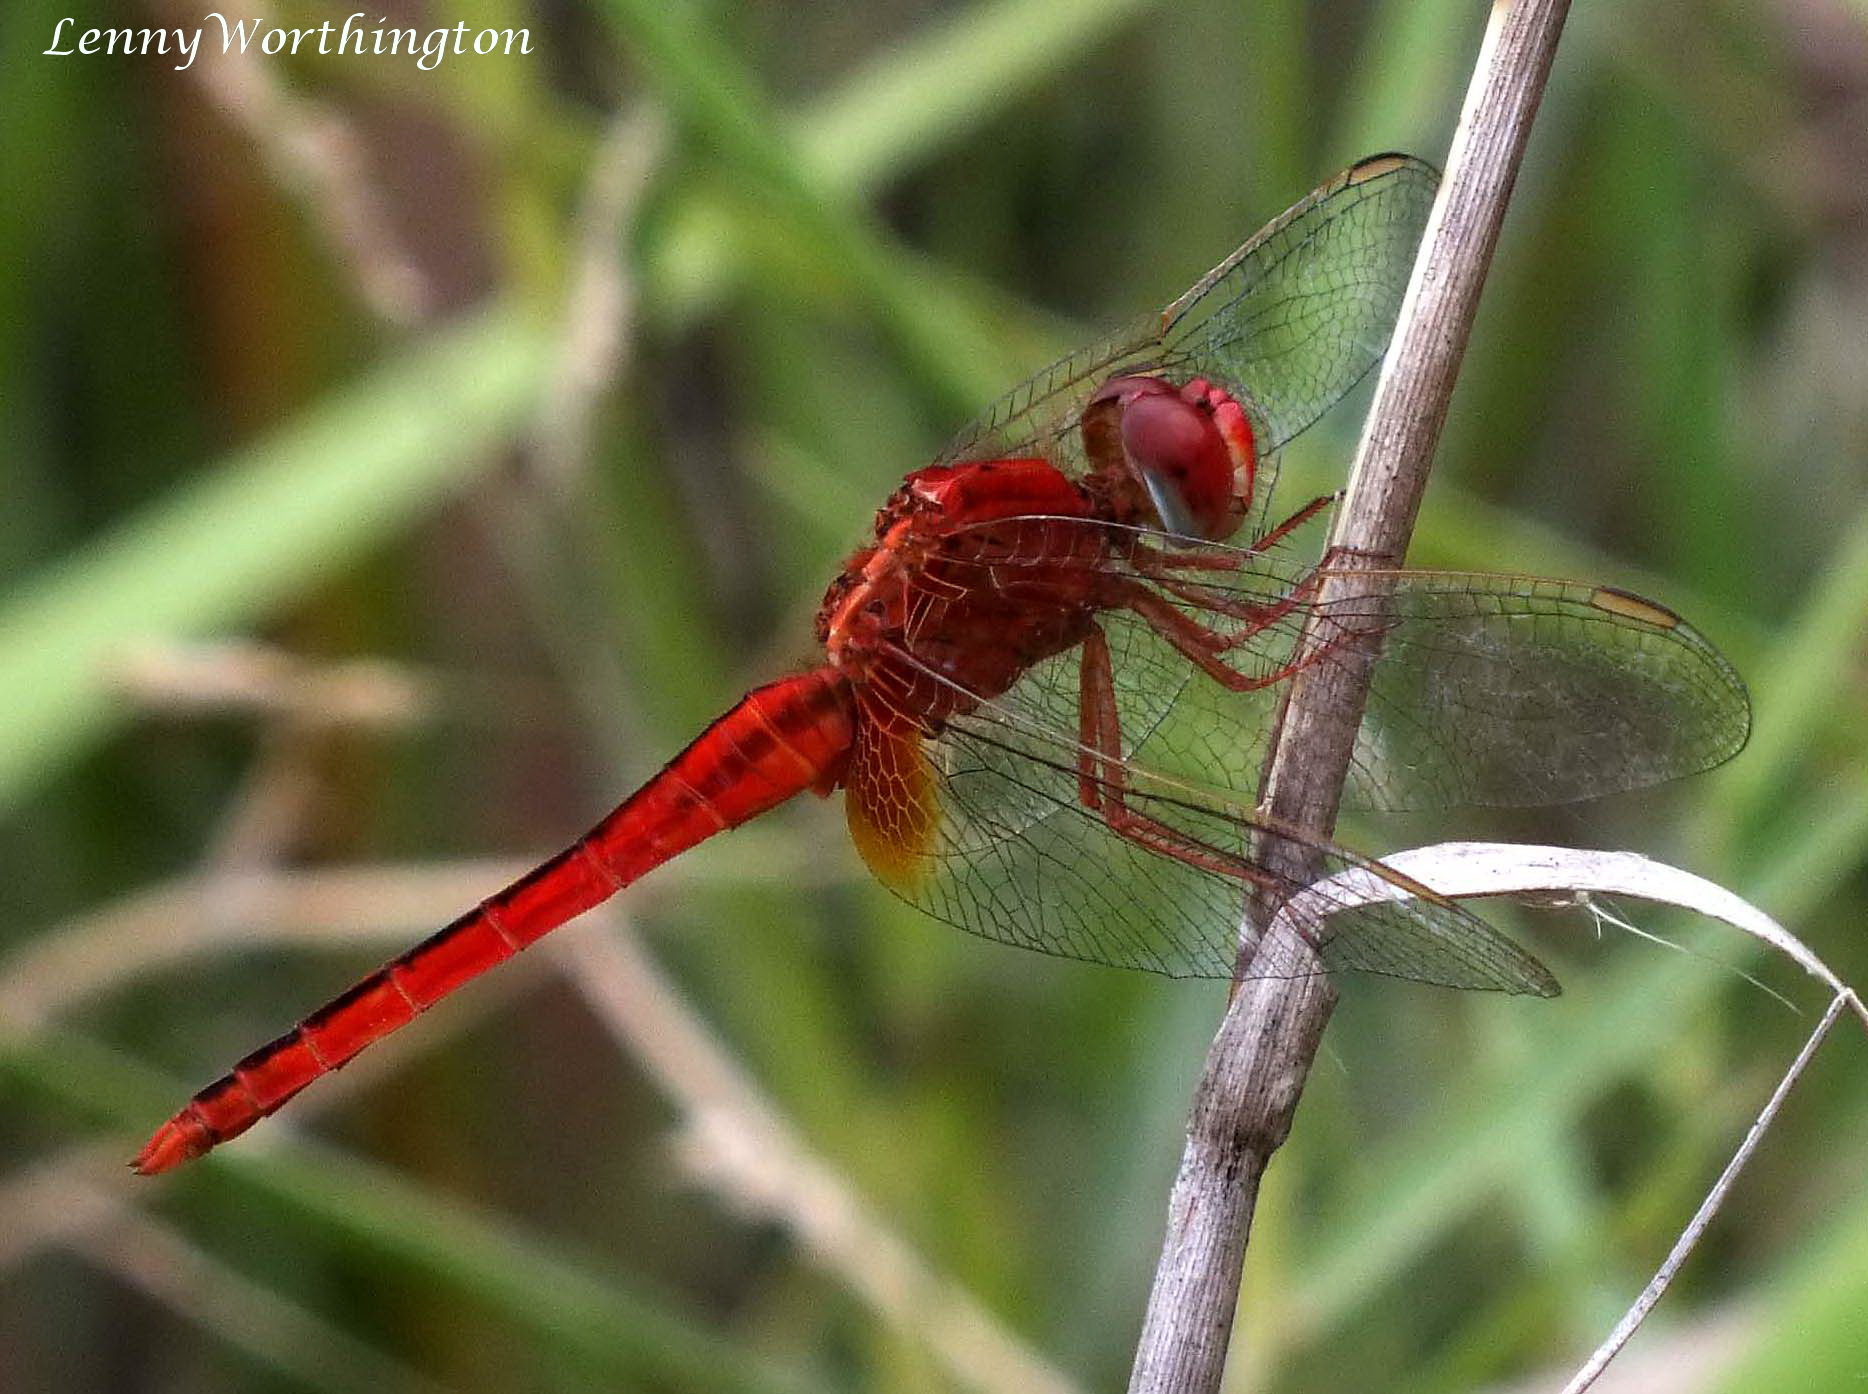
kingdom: Animalia
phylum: Arthropoda
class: Insecta
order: Odonata
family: Libellulidae
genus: Crocothemis
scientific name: Crocothemis servilia
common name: Scarlet skimmer
